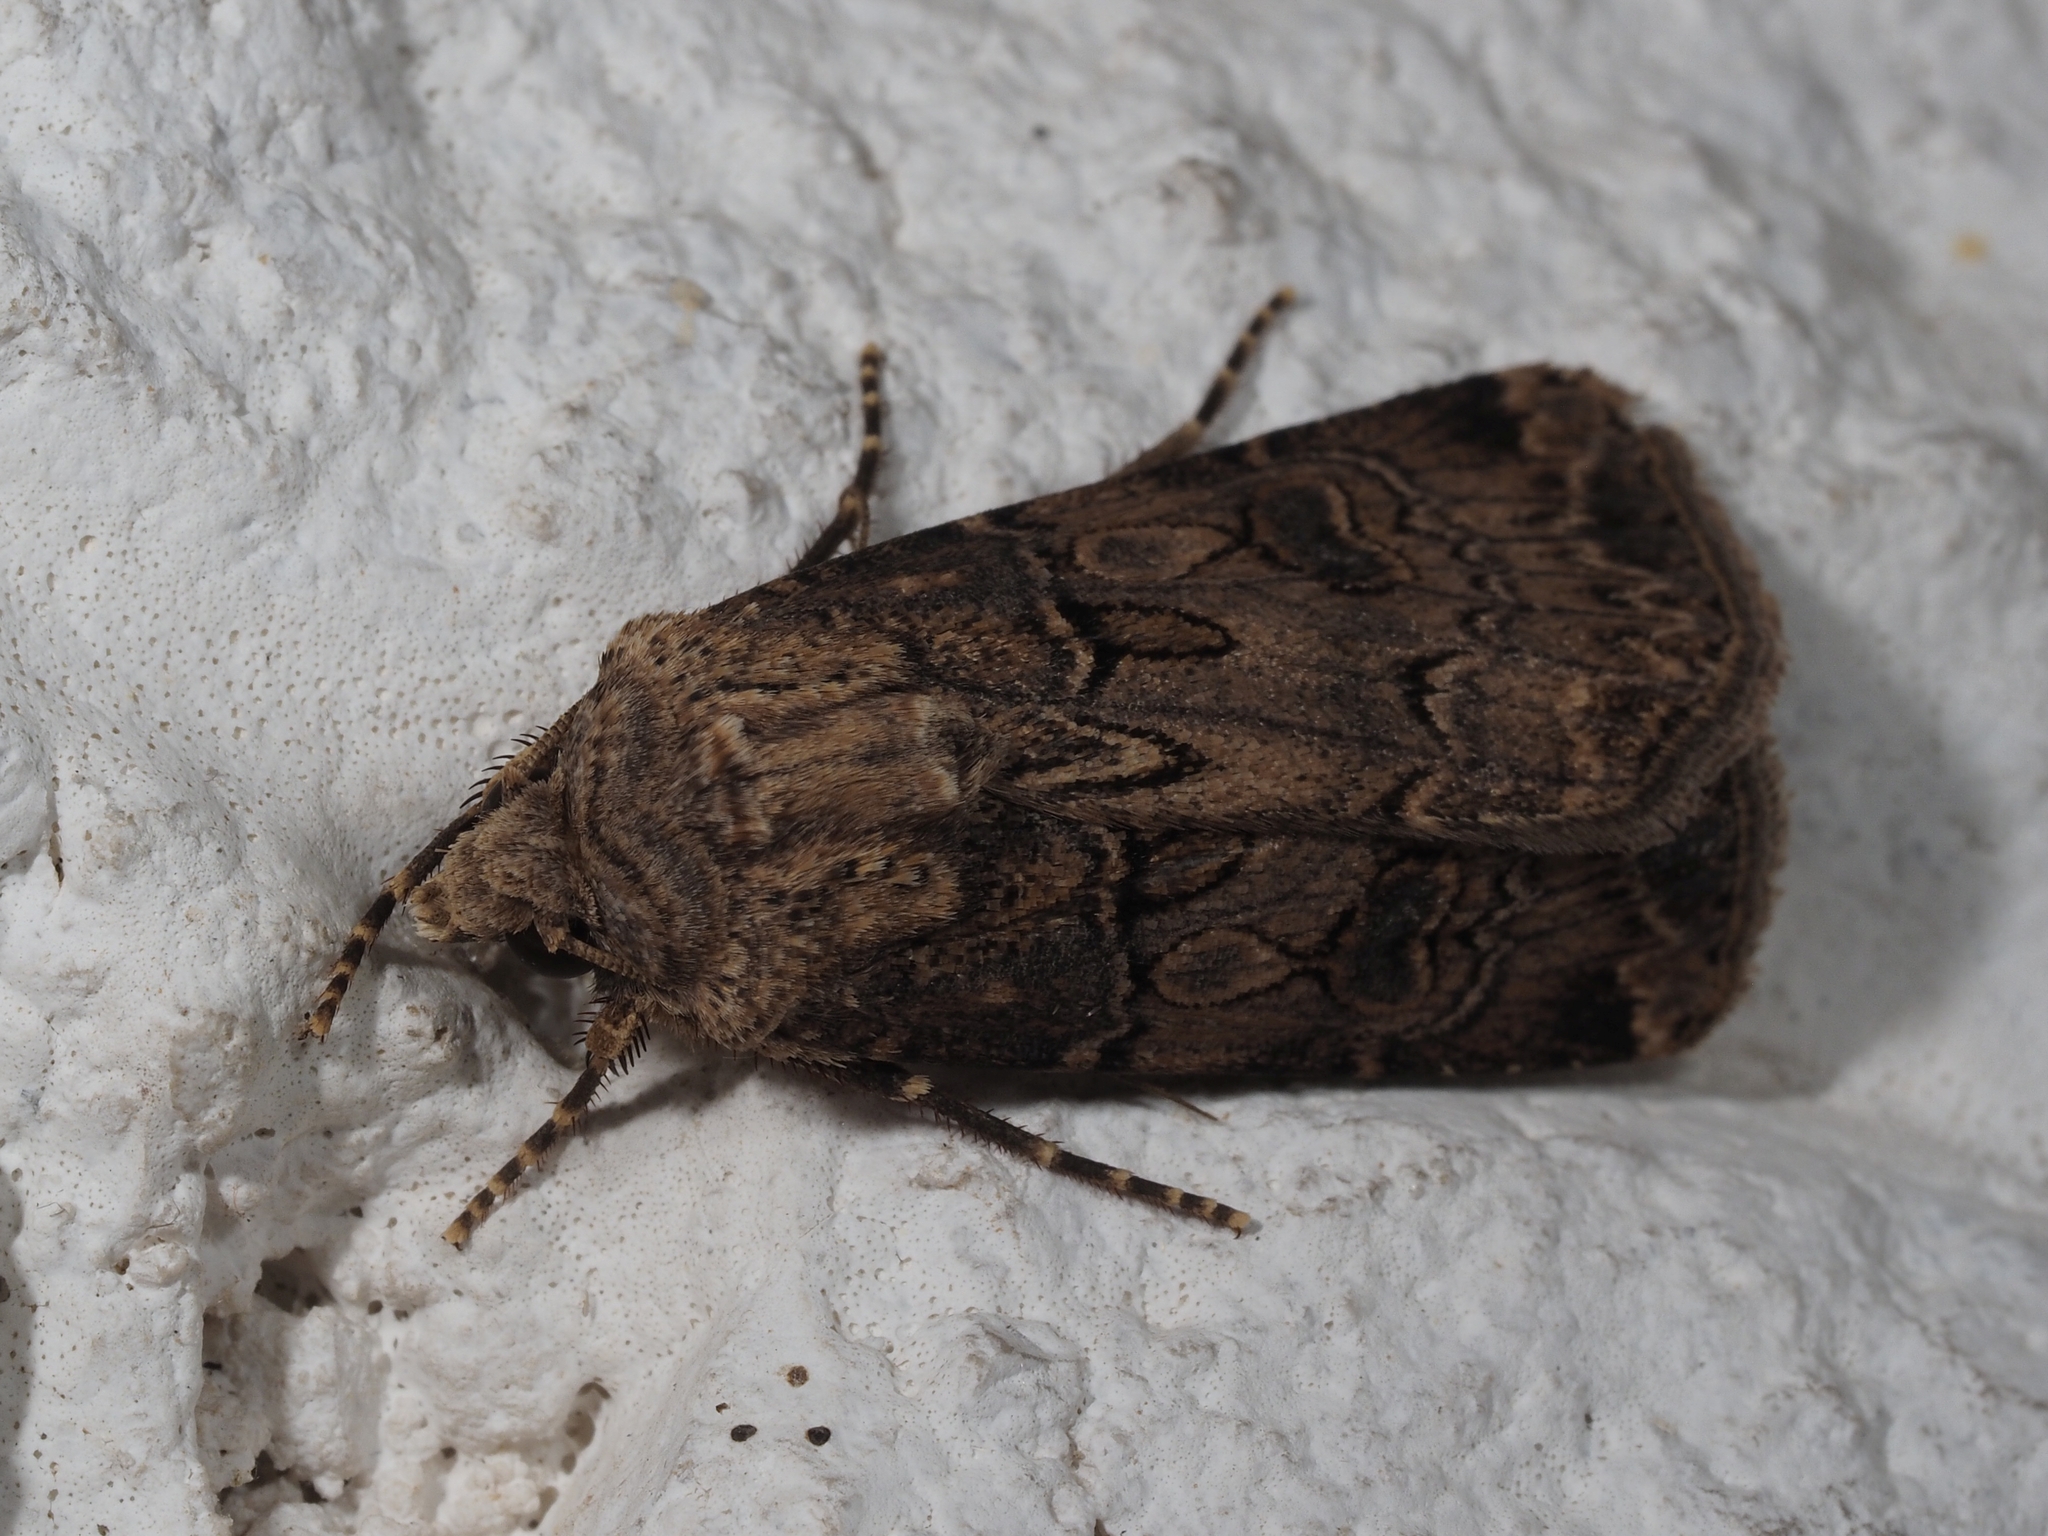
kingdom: Animalia
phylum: Arthropoda
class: Insecta
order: Lepidoptera
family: Noctuidae
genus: Agrotis
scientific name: Agrotis bigramma
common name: Great dart
